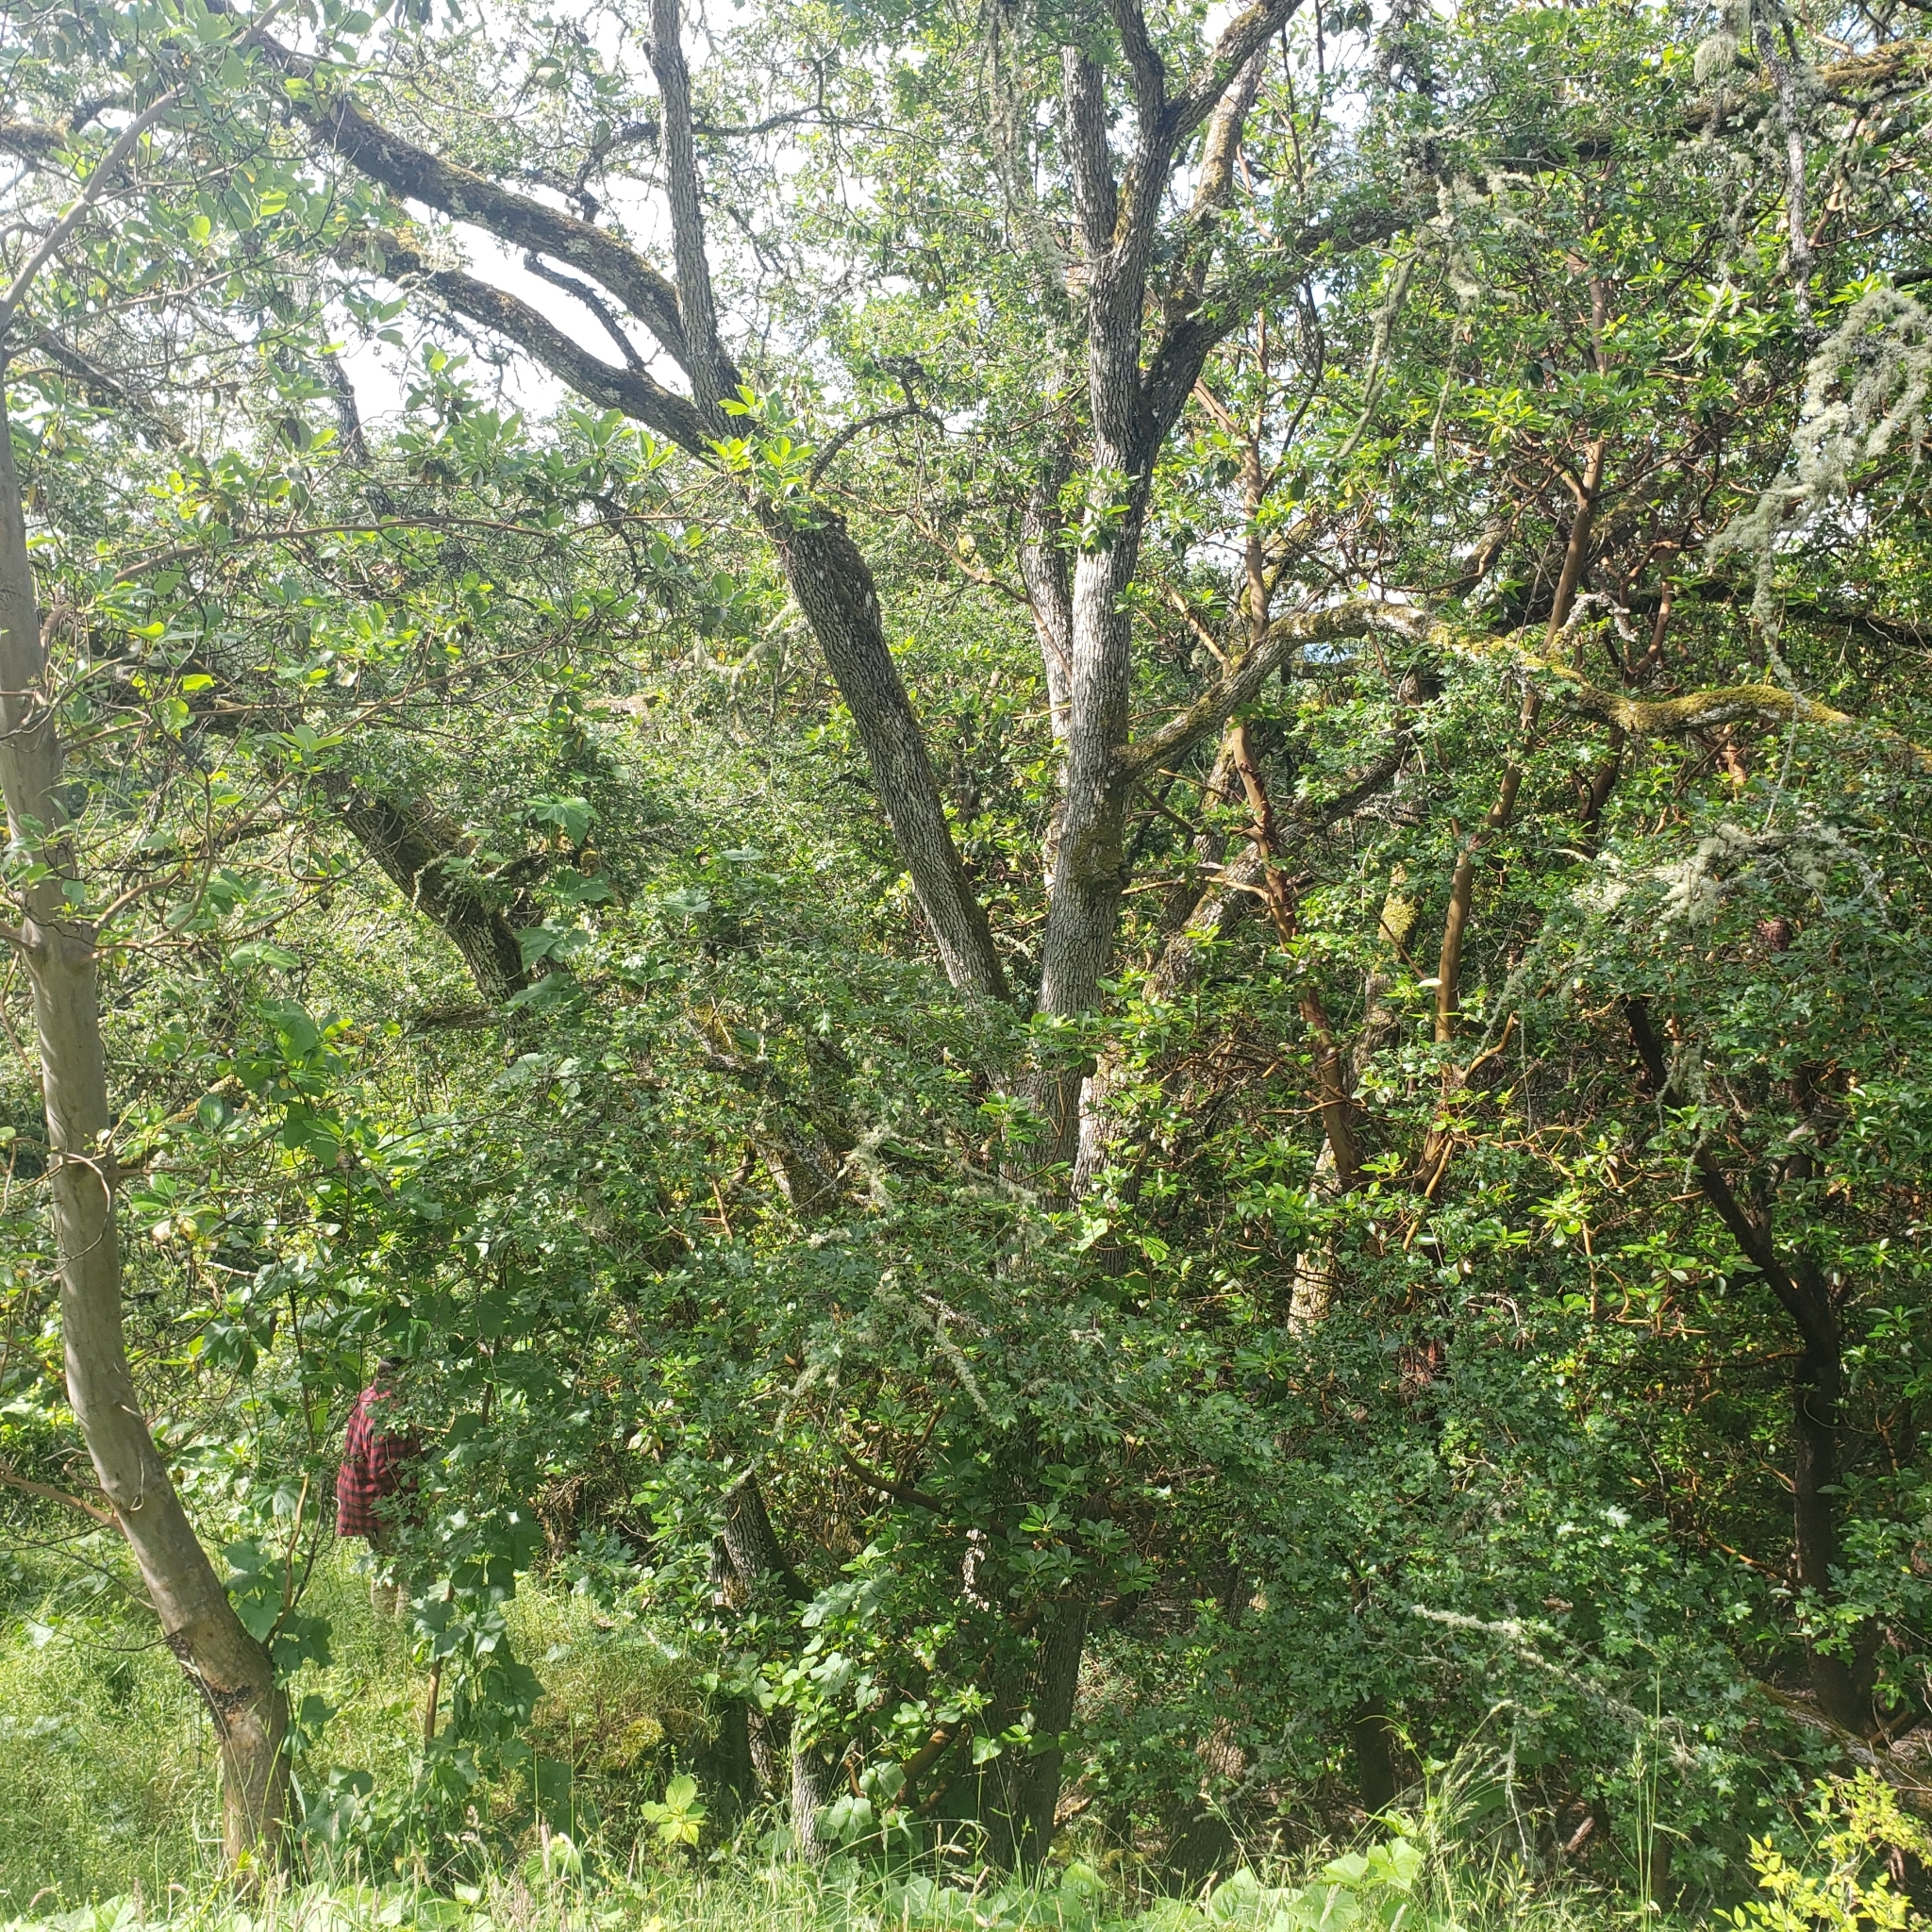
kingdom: Plantae
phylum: Tracheophyta
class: Magnoliopsida
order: Fagales
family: Fagaceae
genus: Quercus
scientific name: Quercus garryana
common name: Garry oak
